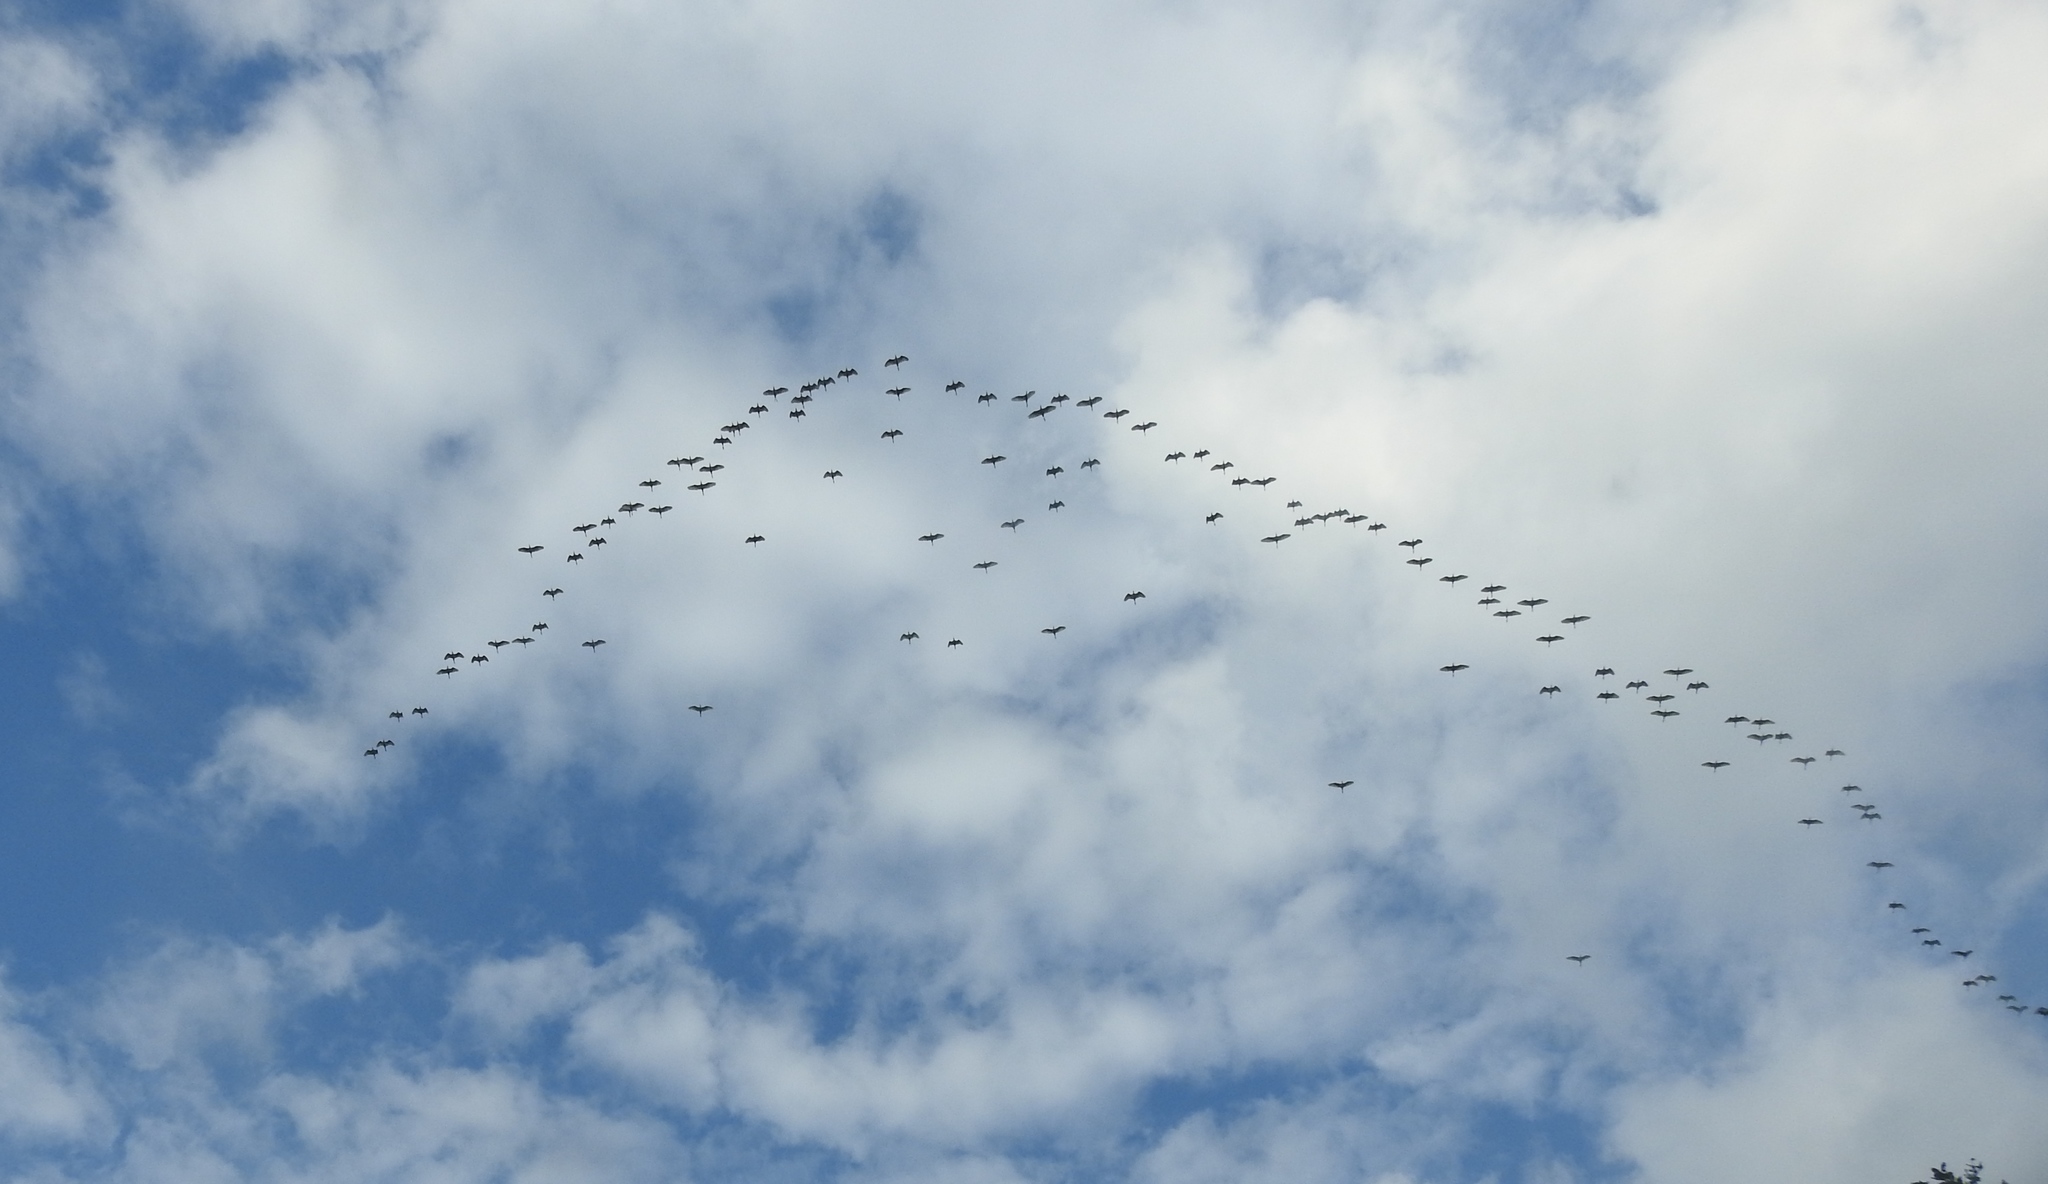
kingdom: Animalia
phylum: Chordata
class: Aves
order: Pelecaniformes
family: Ardeidae
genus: Bubulcus
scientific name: Bubulcus coromandus
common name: Eastern cattle egret
